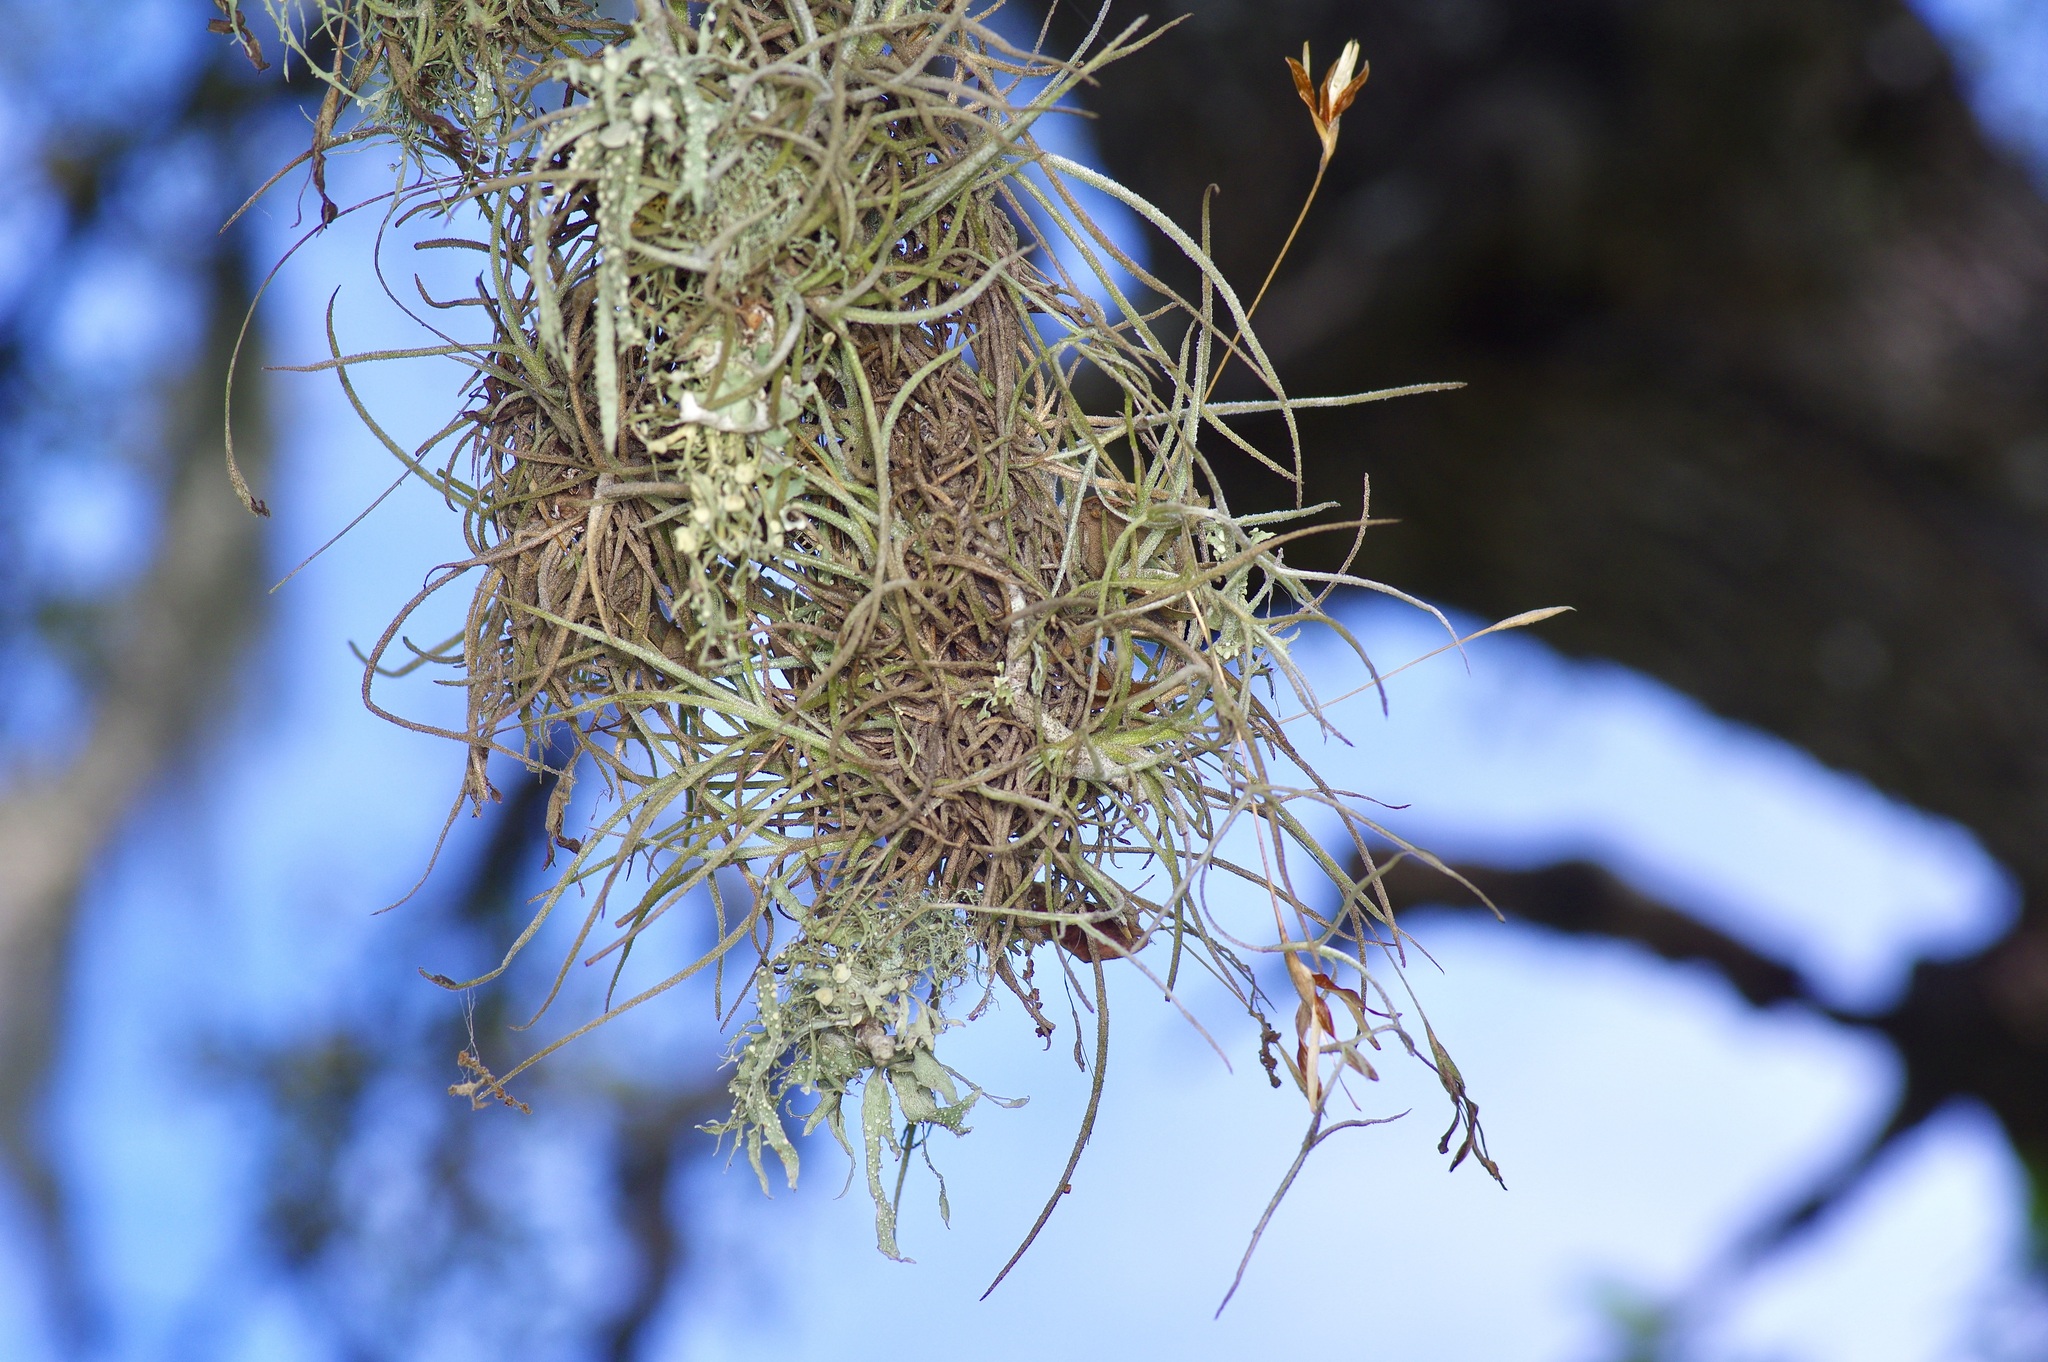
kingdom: Plantae
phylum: Tracheophyta
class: Liliopsida
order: Poales
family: Bromeliaceae
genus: Tillandsia
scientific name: Tillandsia recurvata
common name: Small ballmoss
